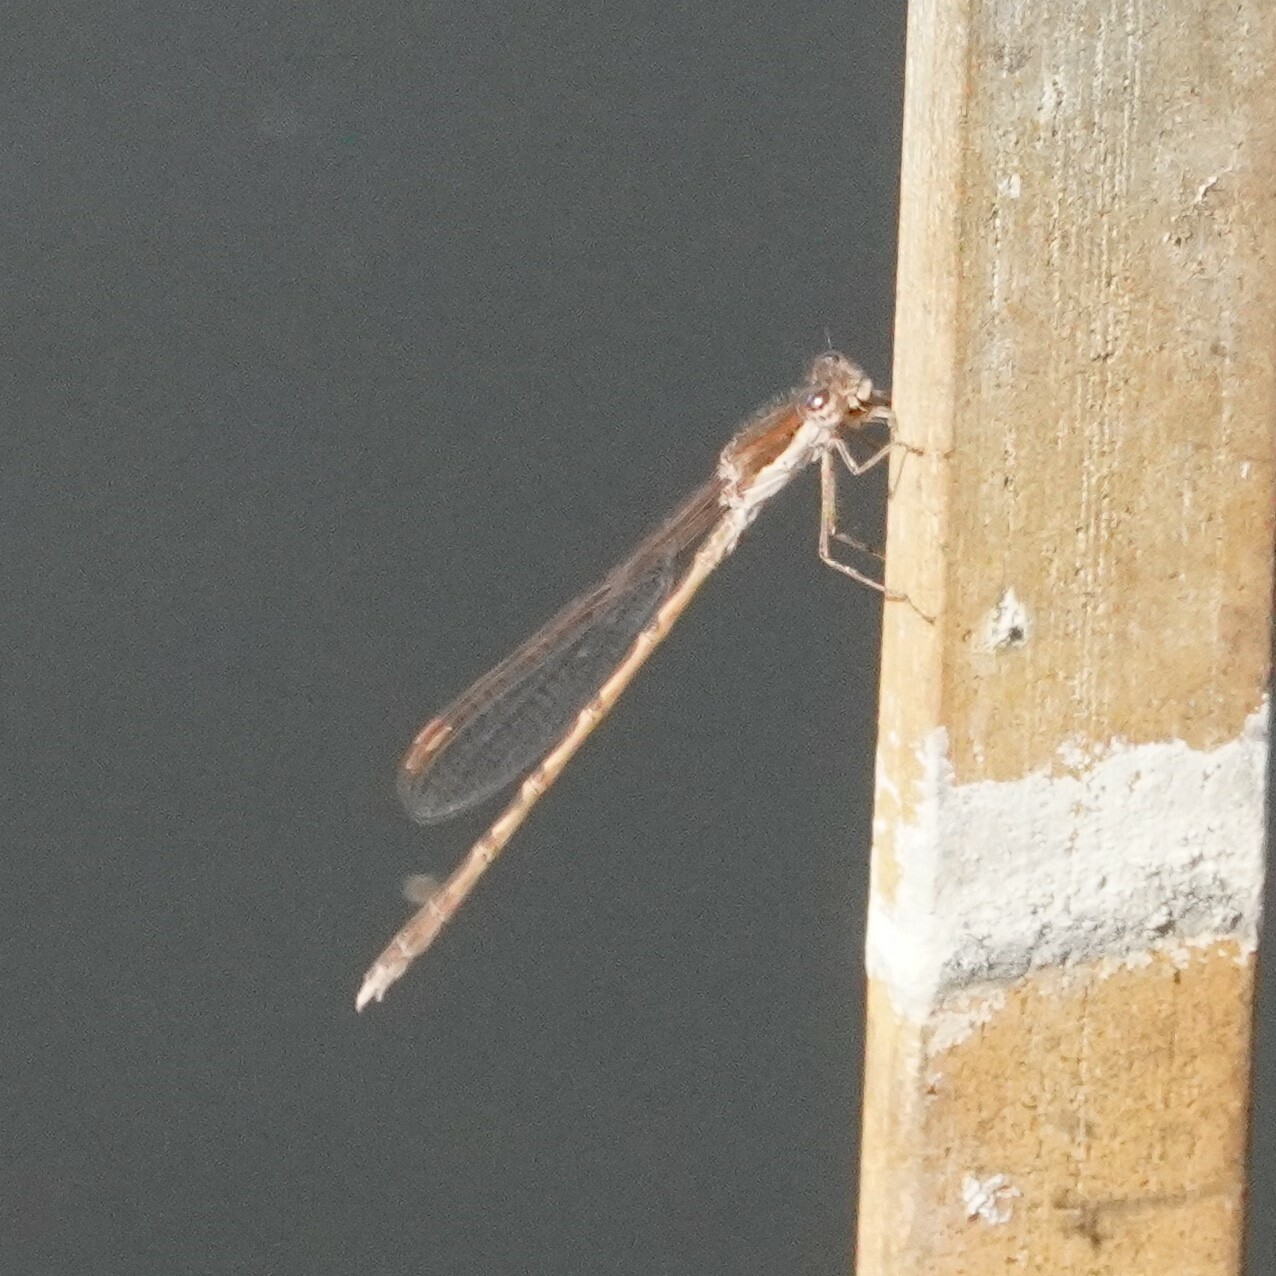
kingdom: Animalia
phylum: Arthropoda
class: Insecta
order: Odonata
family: Lestidae
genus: Sympecma
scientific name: Sympecma fusca
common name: Common winter damsel
